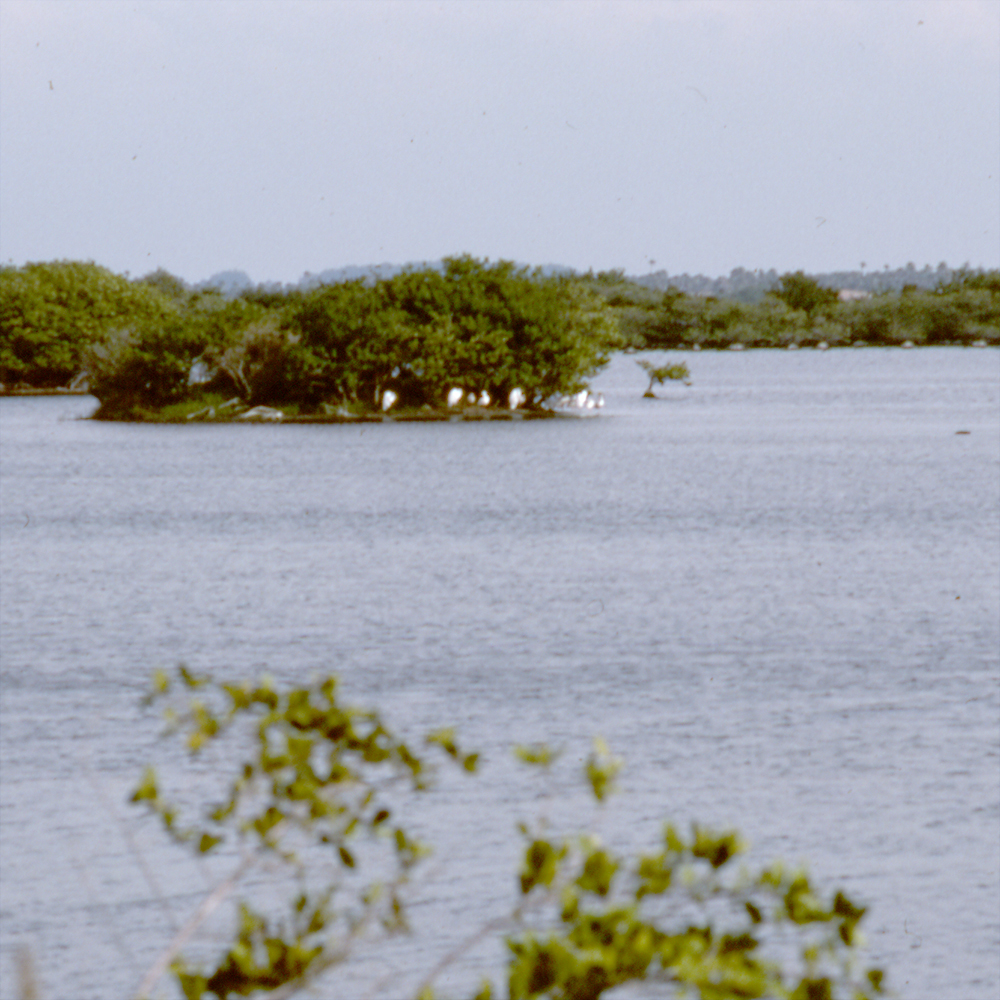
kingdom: Animalia
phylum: Chordata
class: Aves
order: Pelecaniformes
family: Ardeidae
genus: Ardea
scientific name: Ardea alba
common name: Great egret
